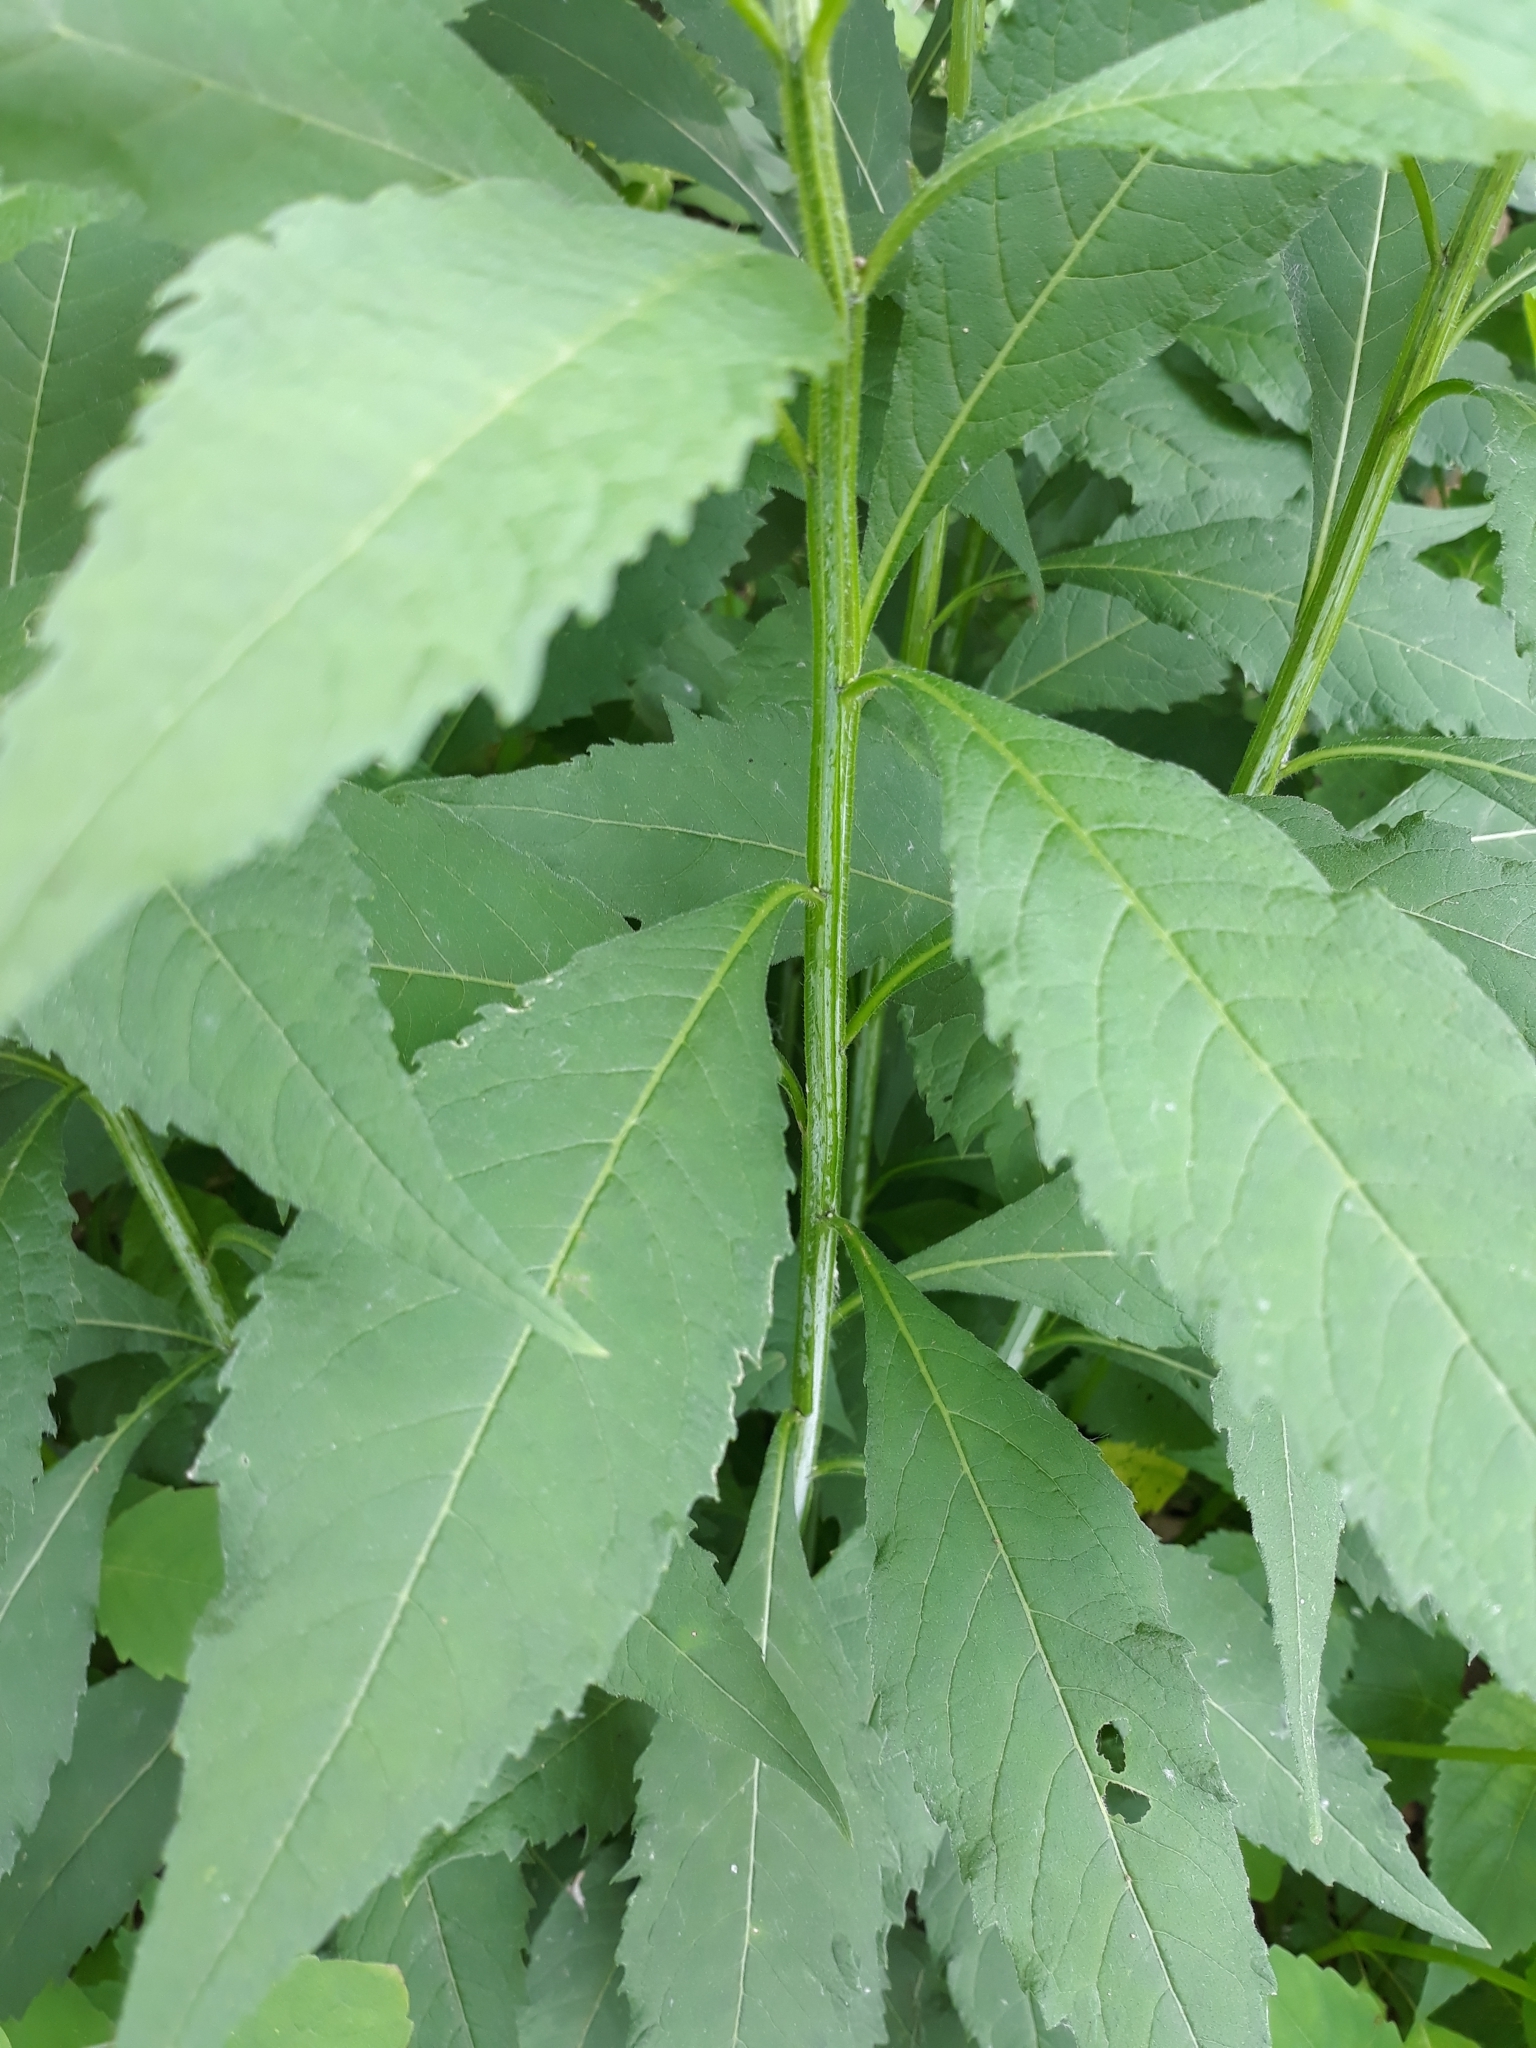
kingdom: Plantae
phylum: Tracheophyta
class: Magnoliopsida
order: Asterales
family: Asteraceae
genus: Verbesina
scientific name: Verbesina alternifolia
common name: Wingstem
